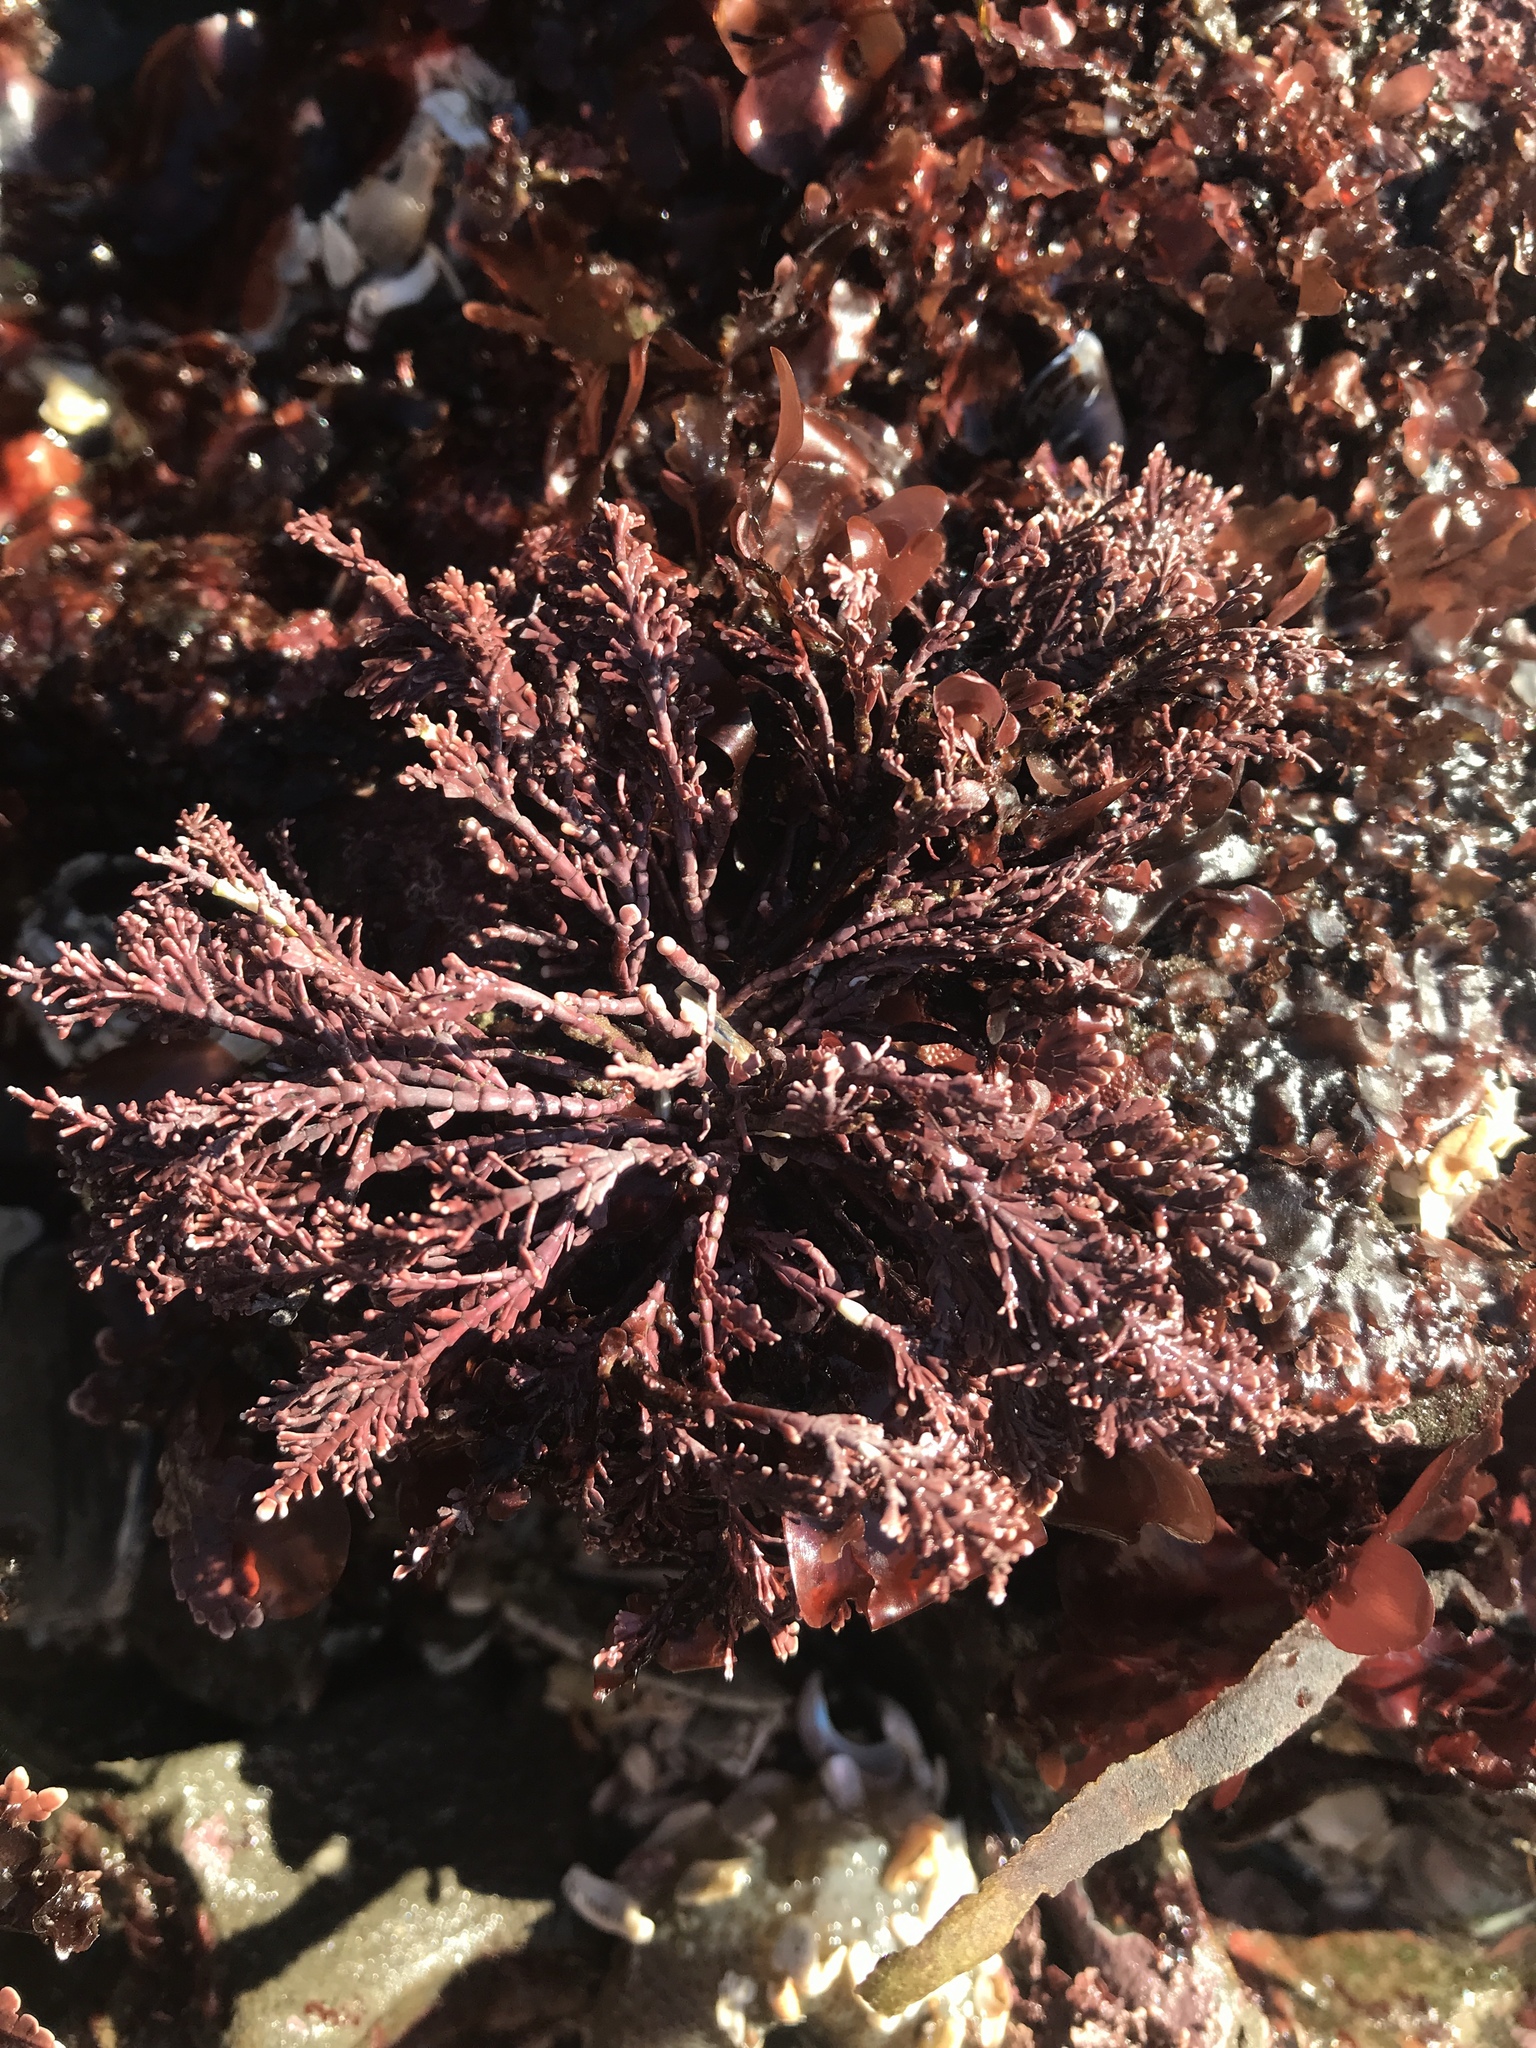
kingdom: Plantae
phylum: Rhodophyta
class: Florideophyceae
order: Corallinales
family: Corallinaceae
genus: Corallina
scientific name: Corallina officinalis
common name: Coral weed
